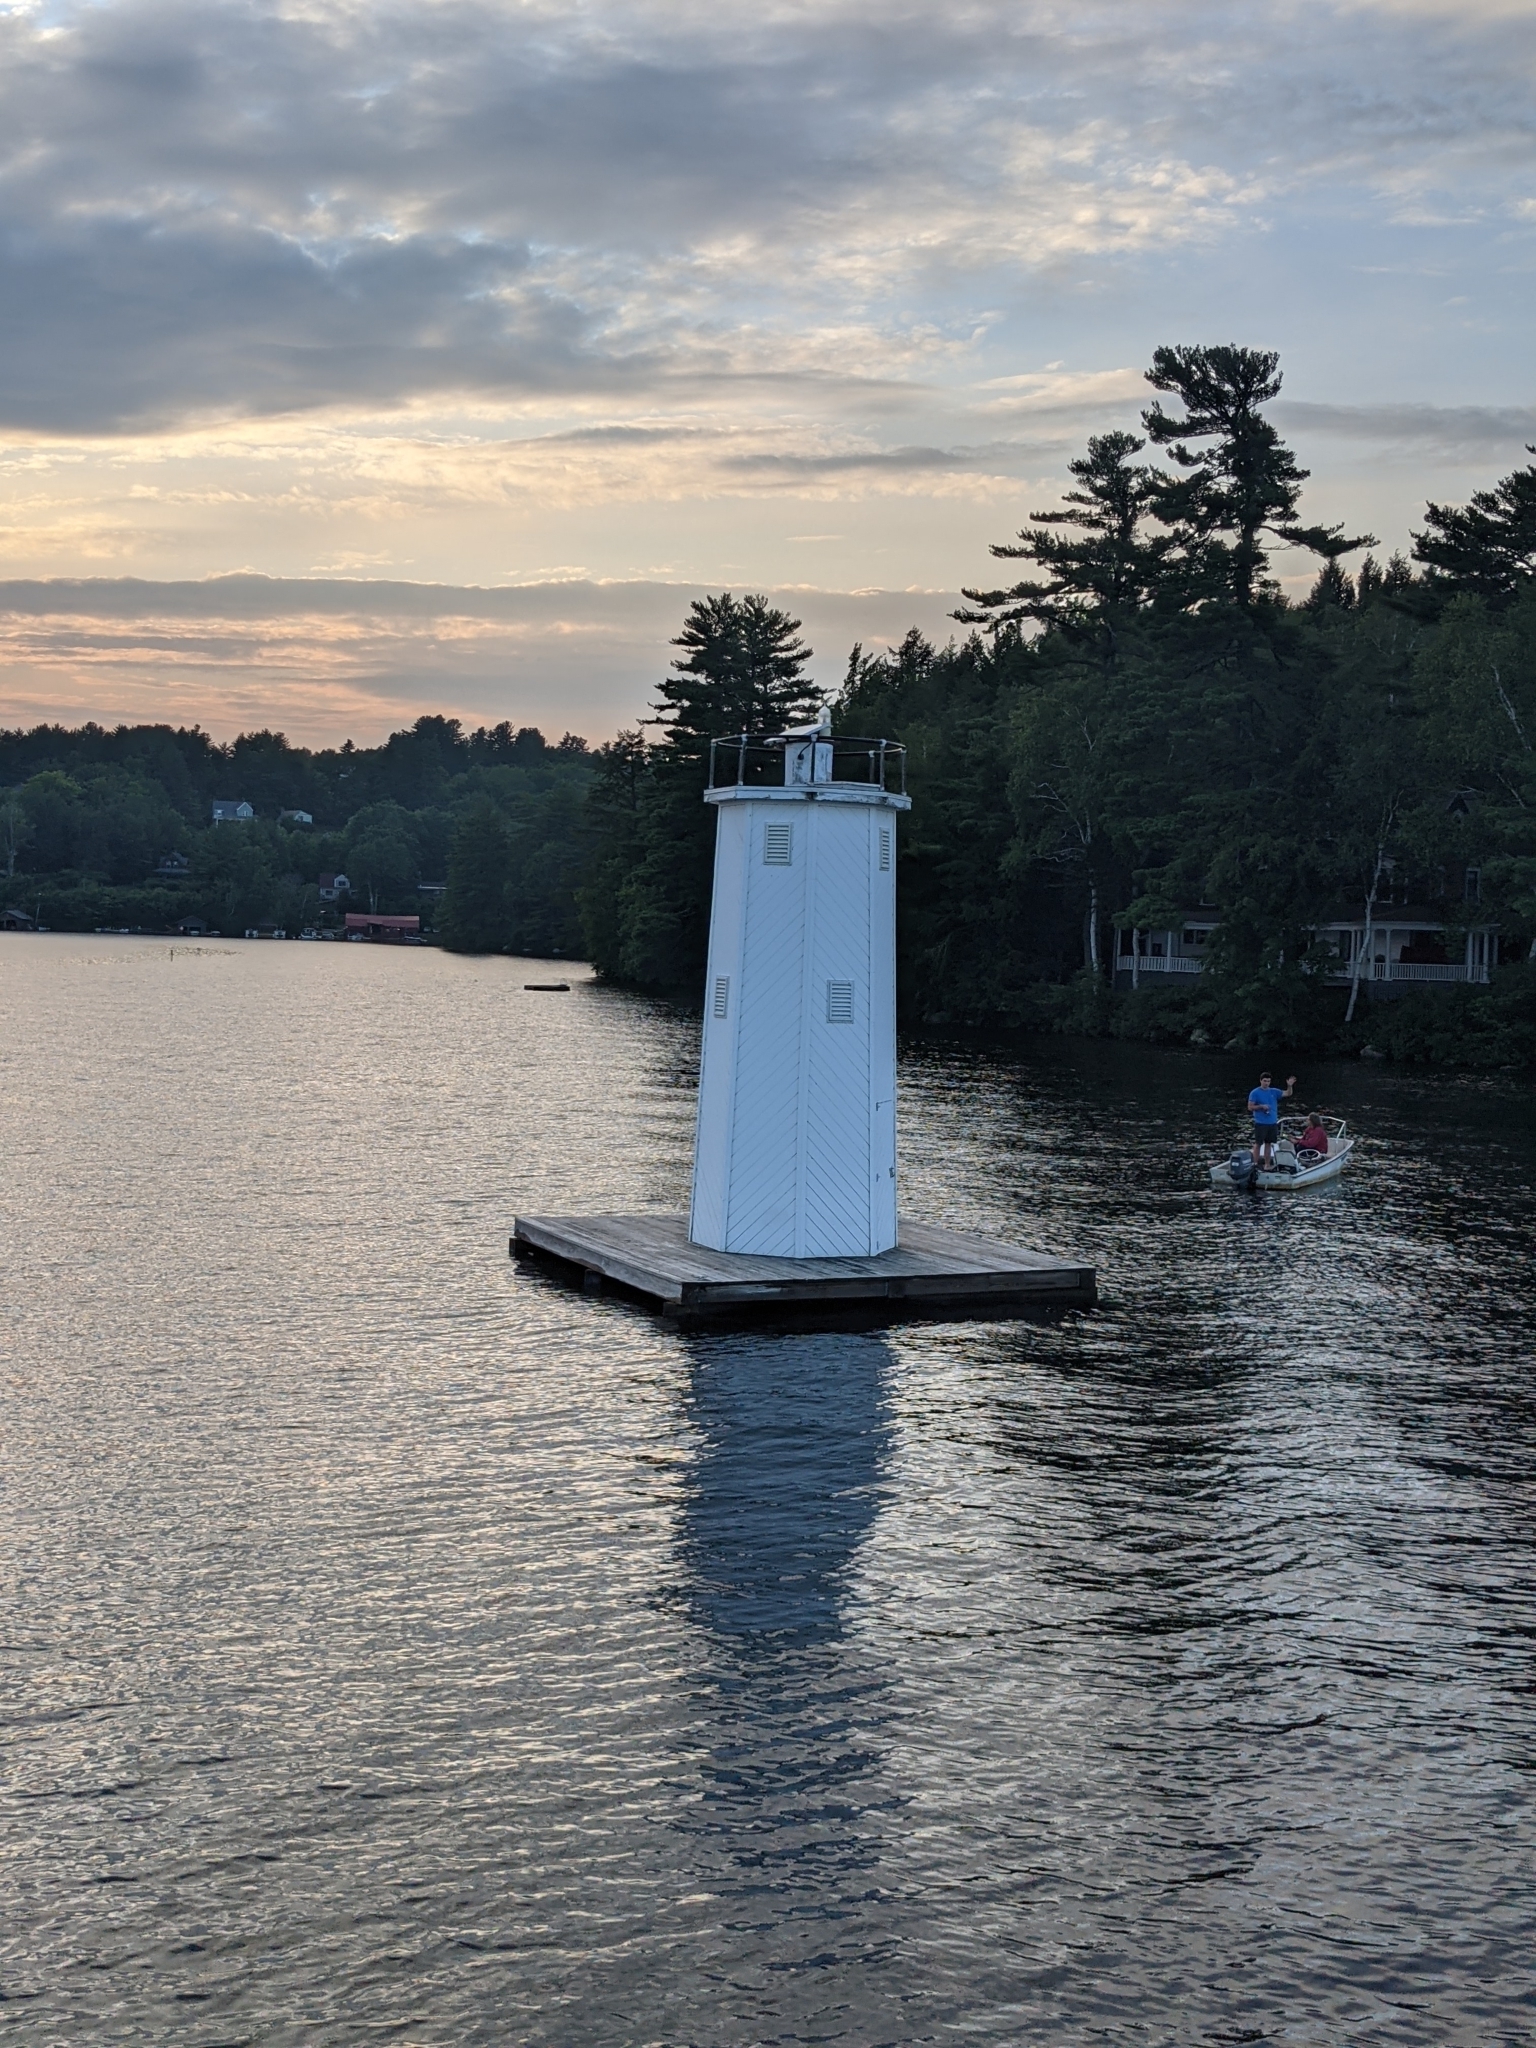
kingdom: Plantae
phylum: Tracheophyta
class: Pinopsida
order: Pinales
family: Pinaceae
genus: Pinus
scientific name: Pinus strobus
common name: Weymouth pine
